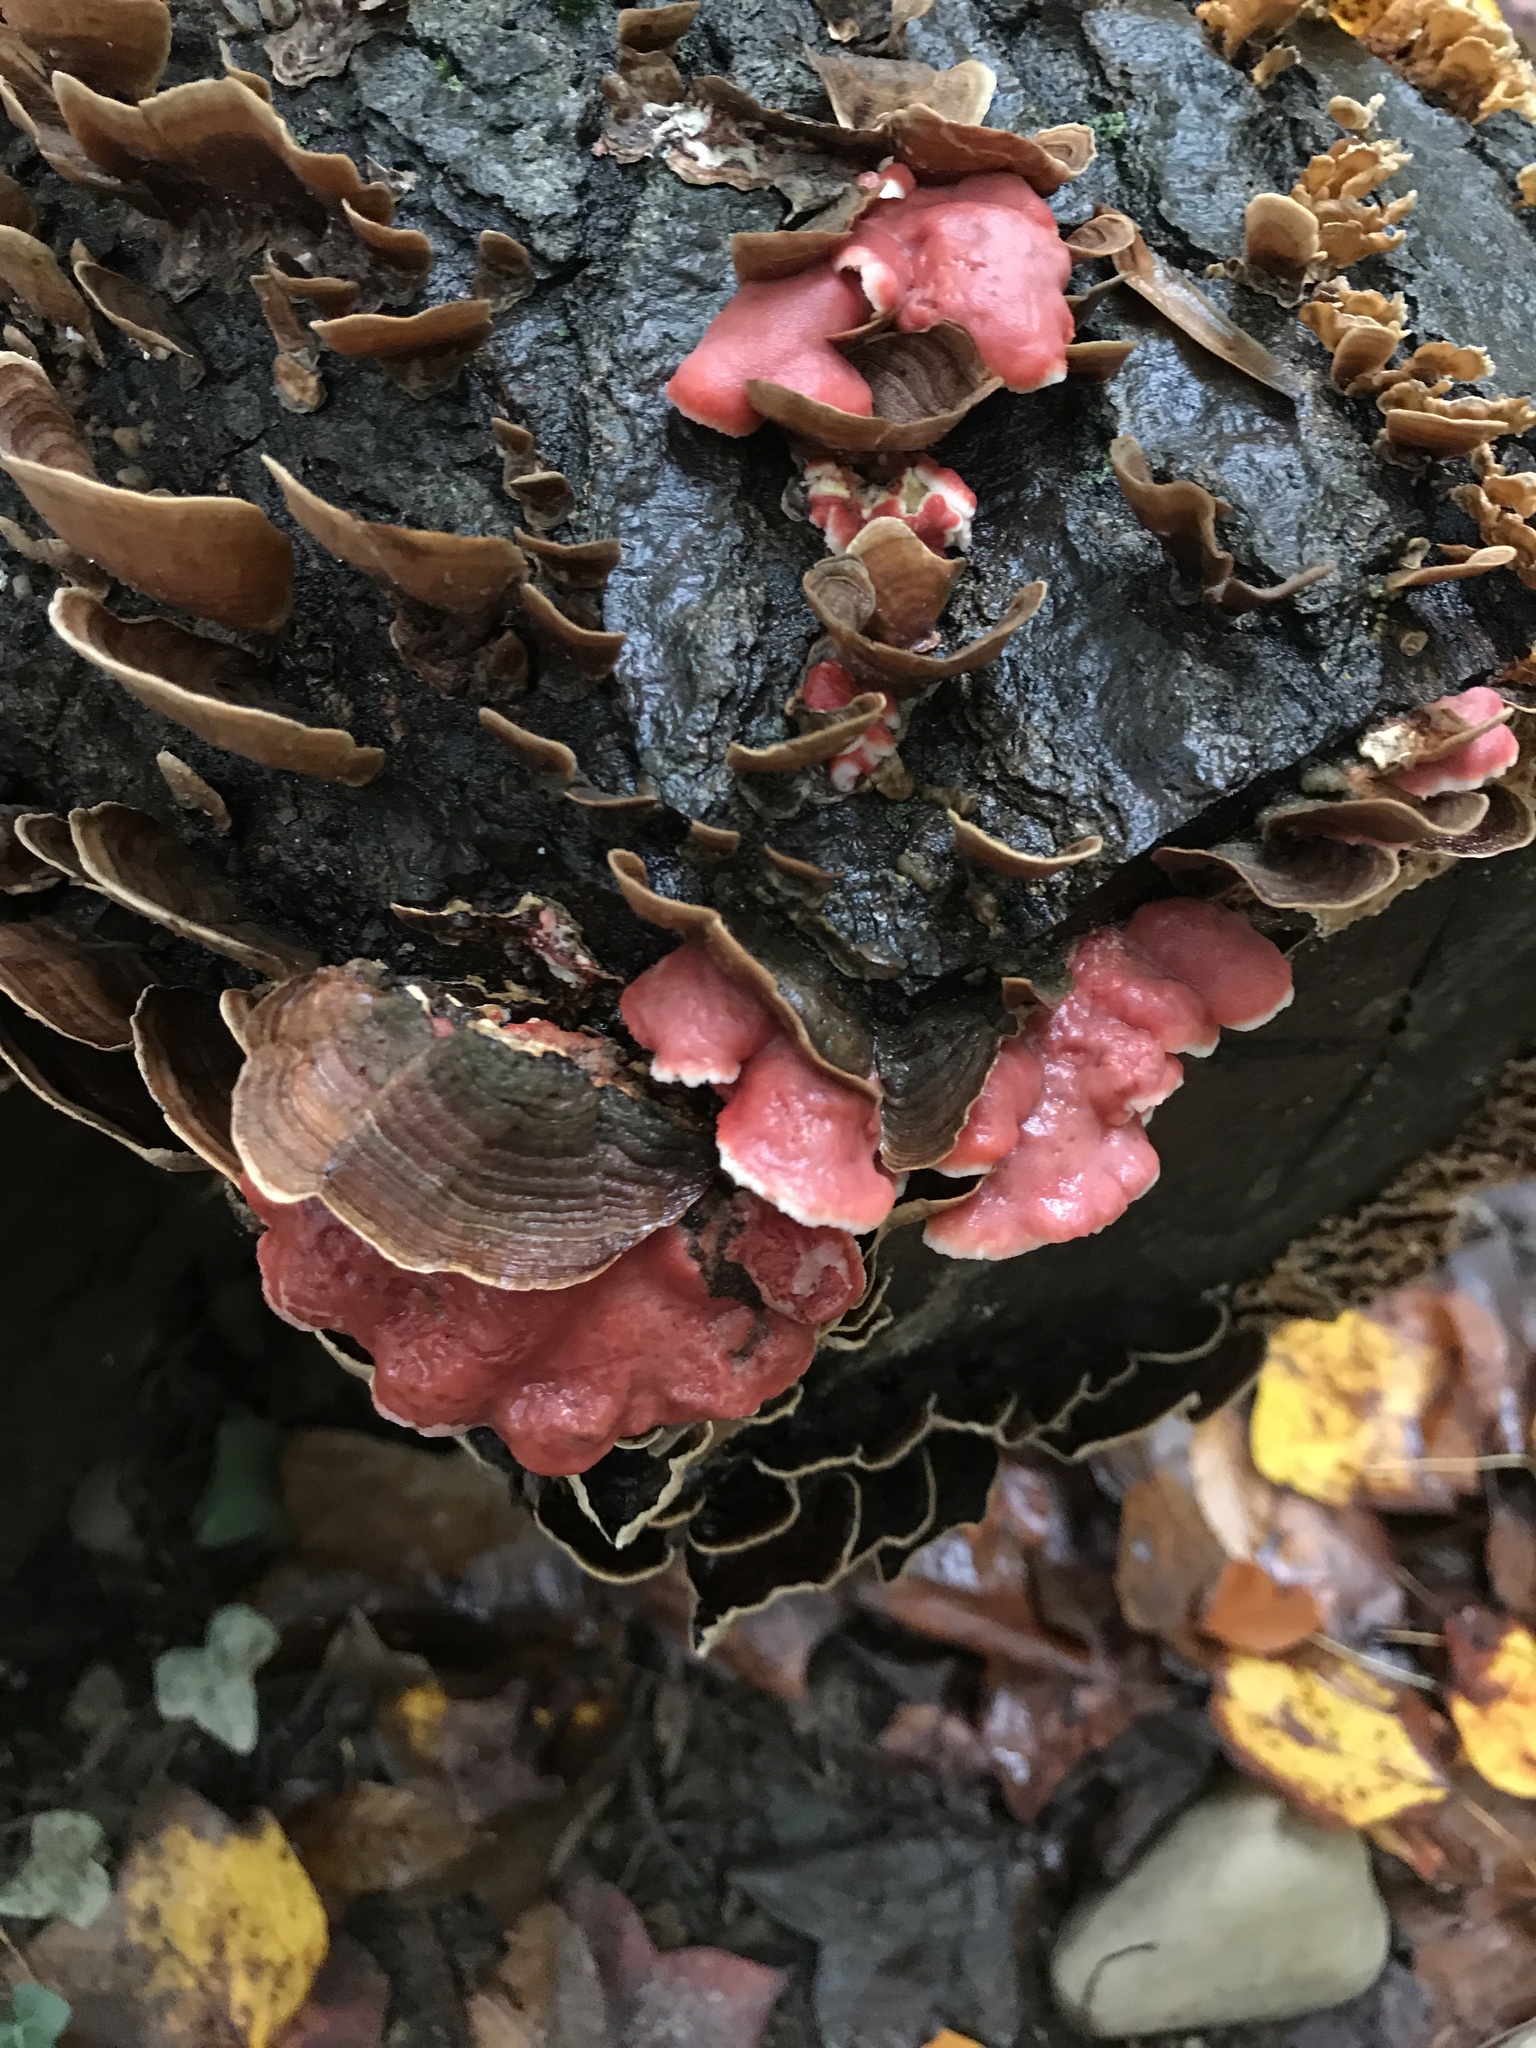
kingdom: Fungi
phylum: Basidiomycota
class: Agaricomycetes
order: Polyporales
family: Irpicaceae
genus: Byssomerulius
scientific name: Byssomerulius incarnatus
